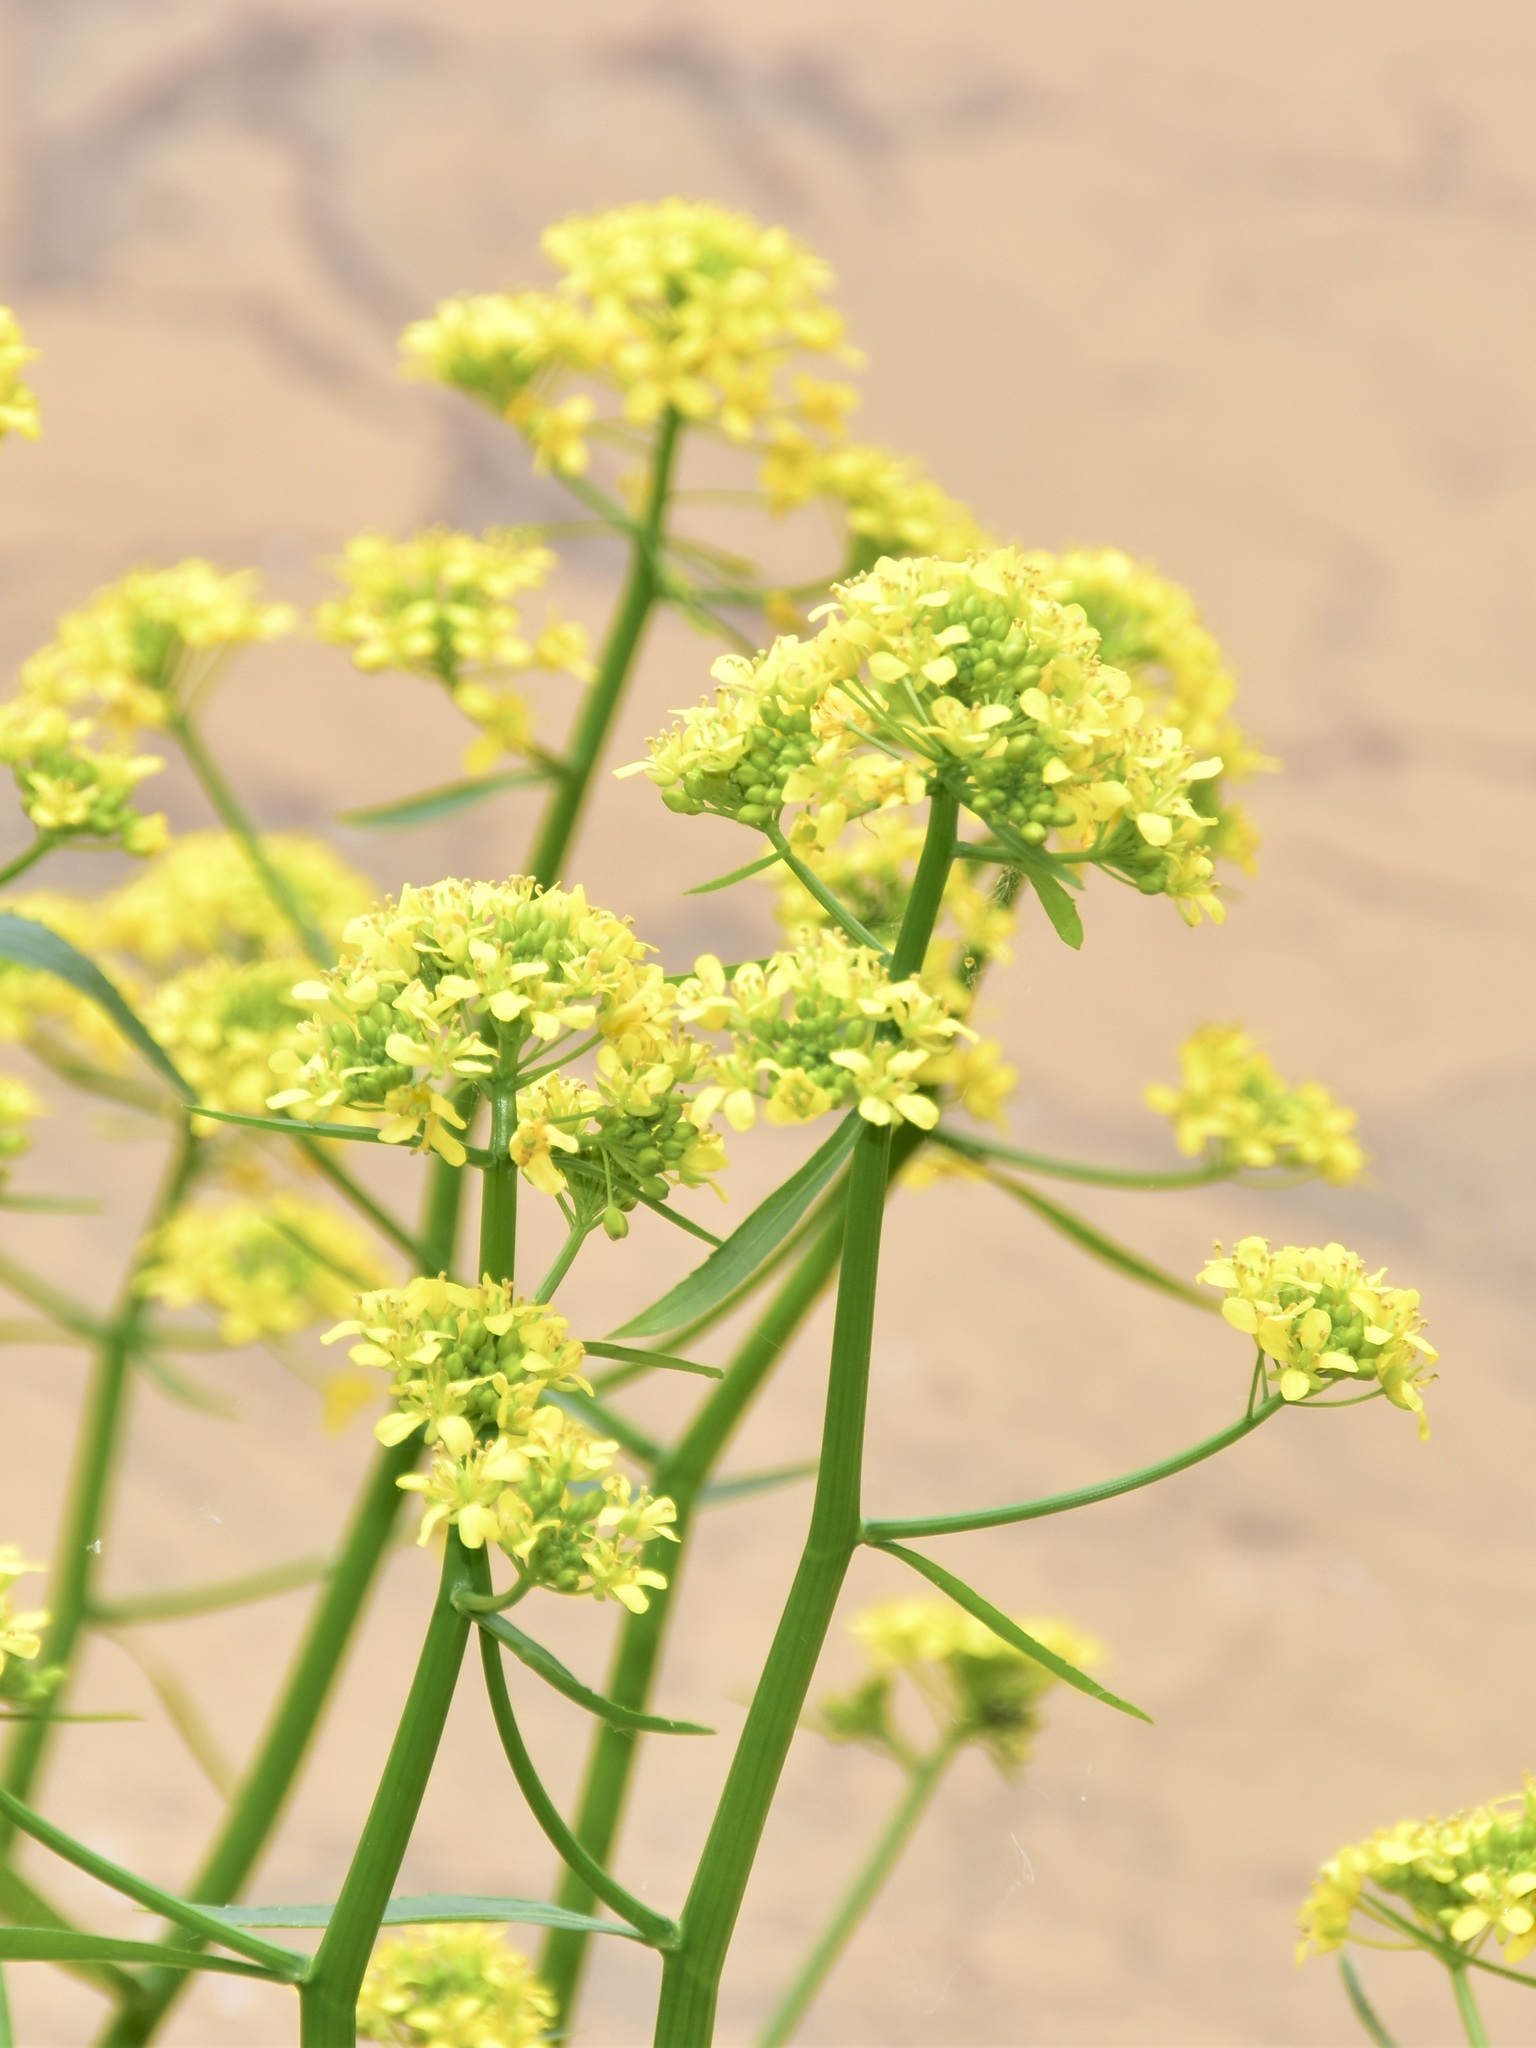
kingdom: Plantae
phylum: Tracheophyta
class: Magnoliopsida
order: Brassicales
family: Brassicaceae
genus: Rorippa
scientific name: Rorippa amphibia
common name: Great yellow-cress
